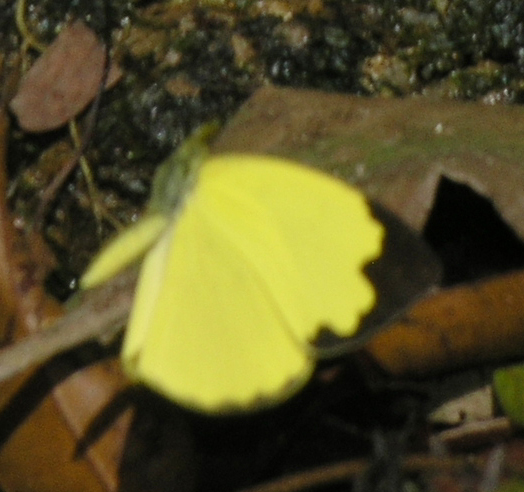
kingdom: Animalia
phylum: Arthropoda
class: Insecta
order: Lepidoptera
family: Pieridae
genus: Eurema
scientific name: Eurema blanda
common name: Three-spot grass yellow
